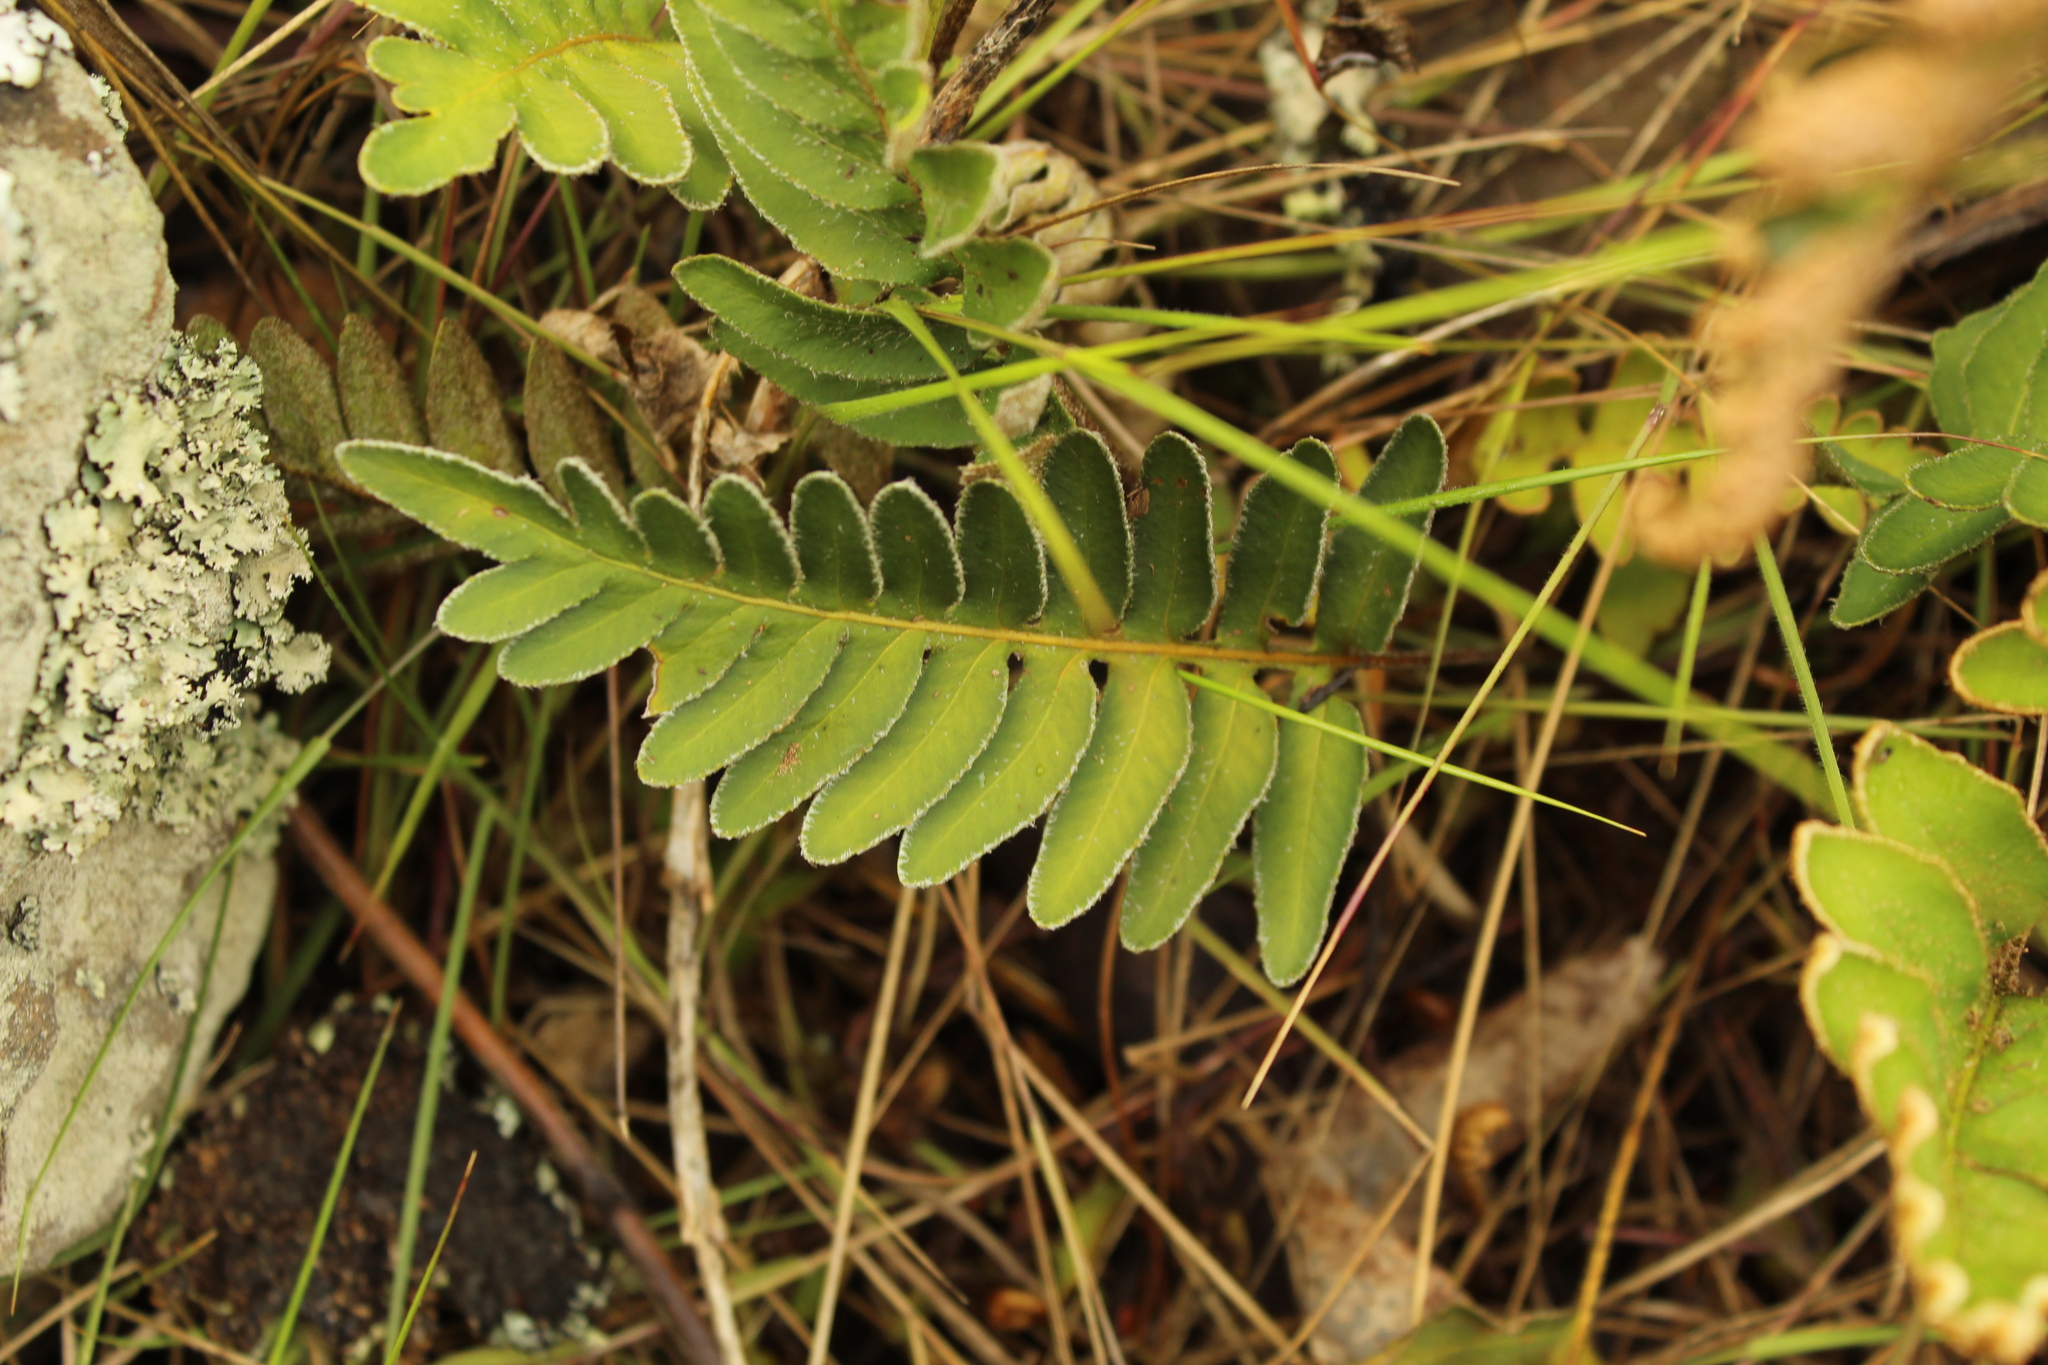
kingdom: Plantae
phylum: Tracheophyta
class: Polypodiopsida
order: Polypodiales
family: Polypodiaceae
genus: Pleopeltis
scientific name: Pleopeltis thyssanolepis
